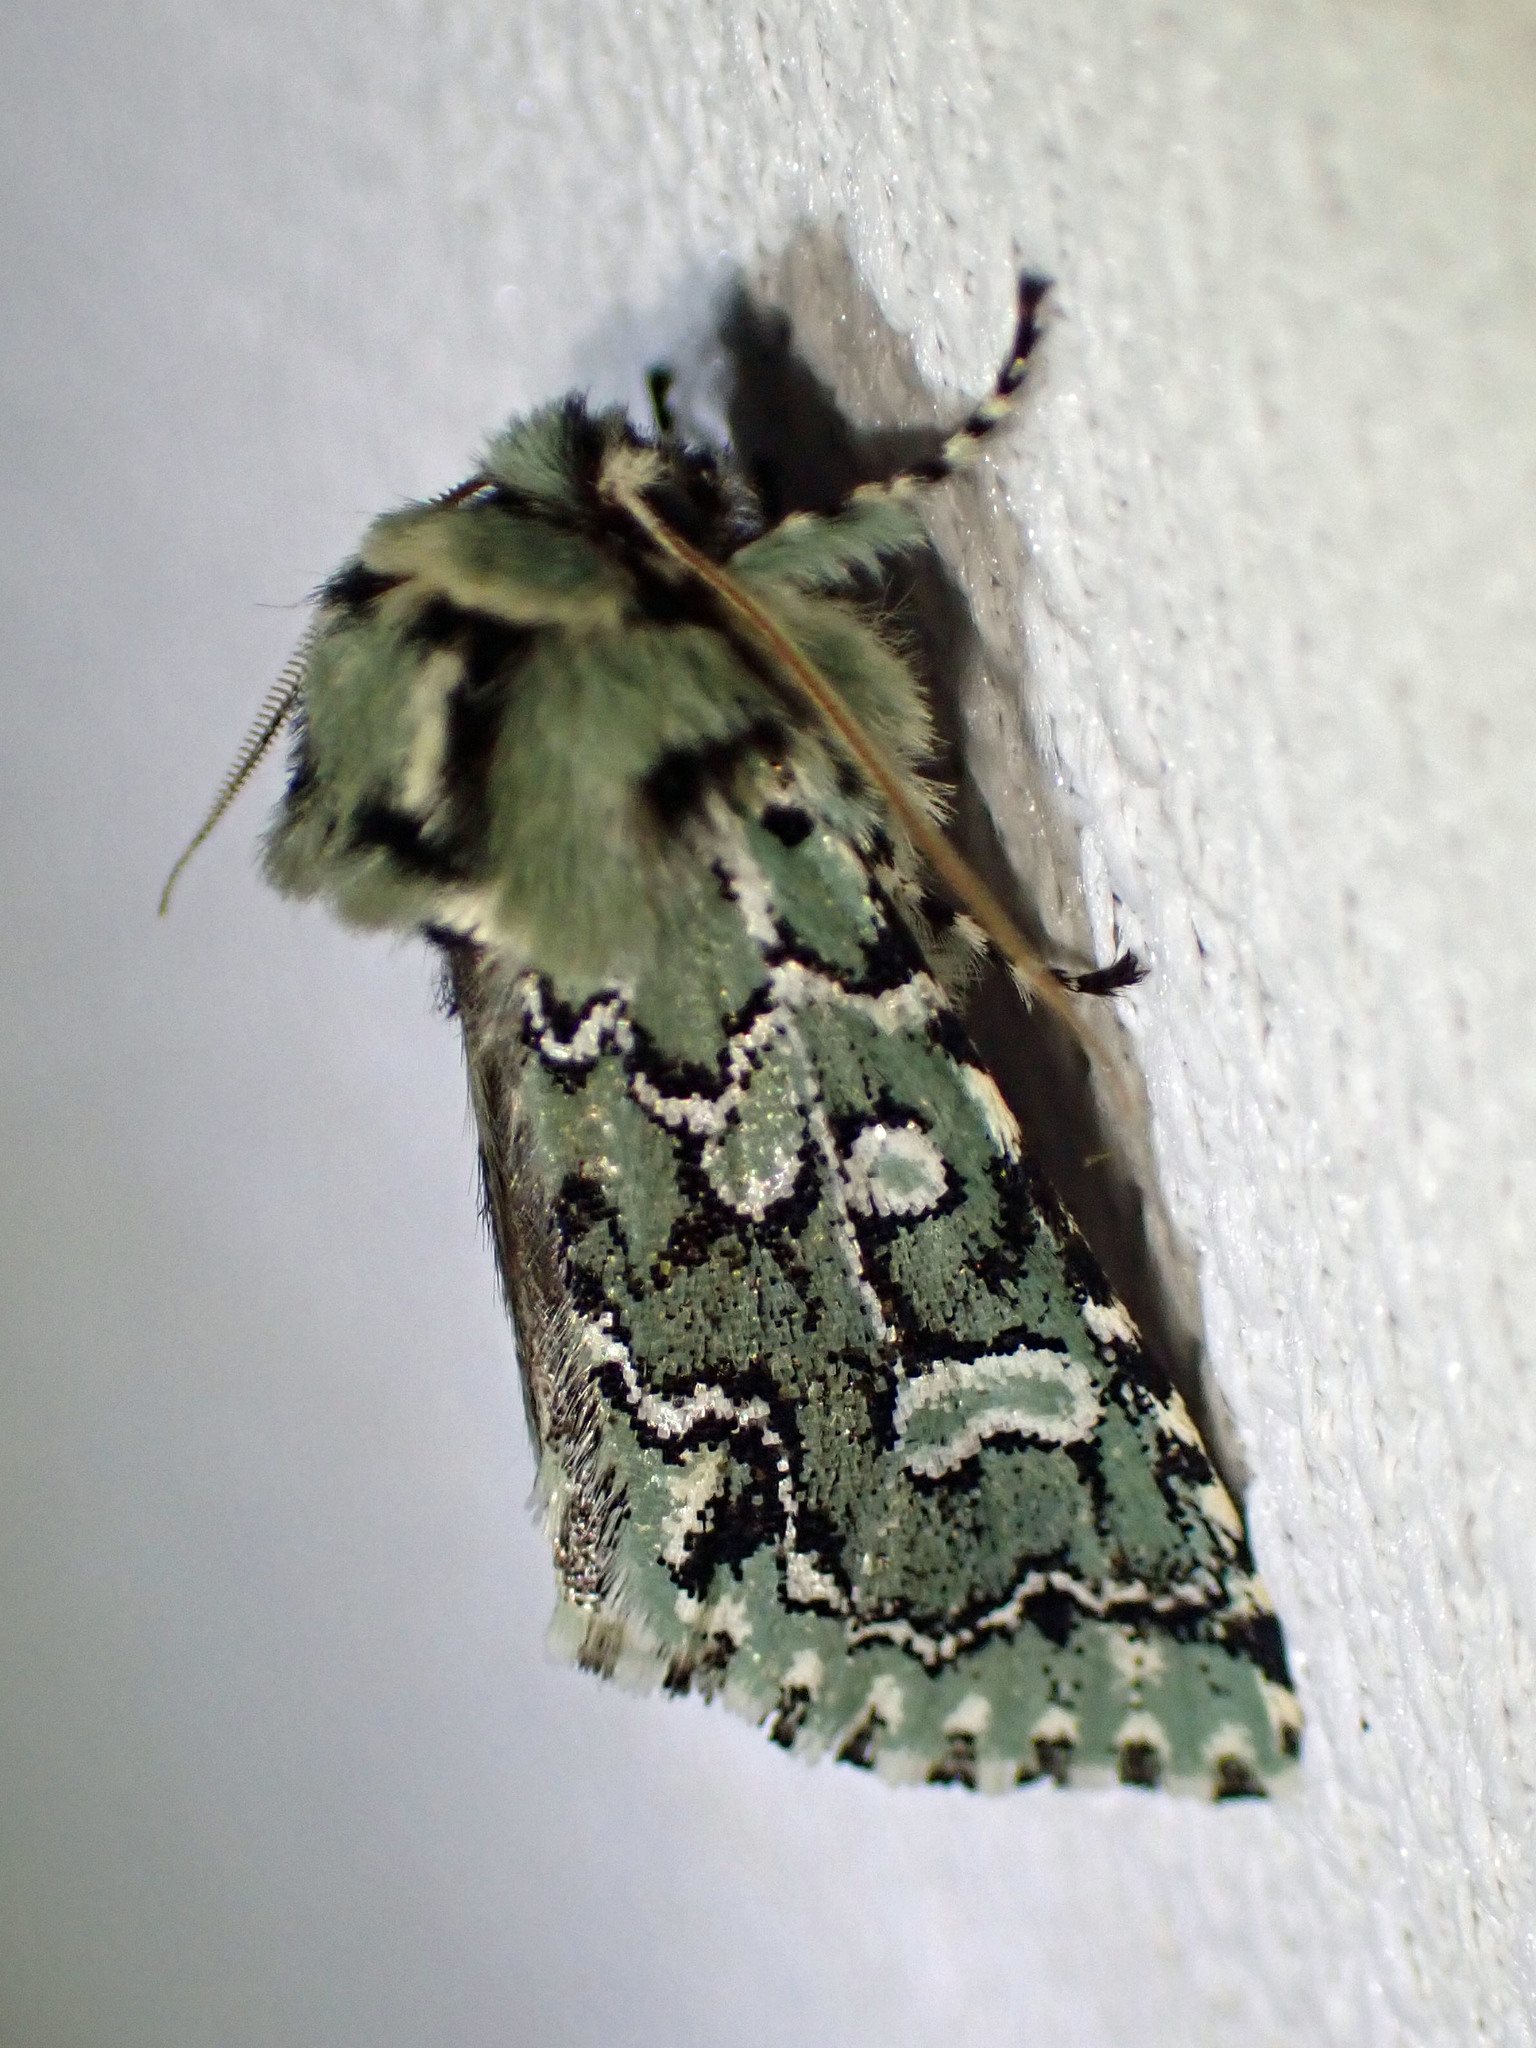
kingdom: Animalia
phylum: Arthropoda
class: Insecta
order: Lepidoptera
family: Noctuidae
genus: Feralia
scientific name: Feralia jocosa
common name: Joker
